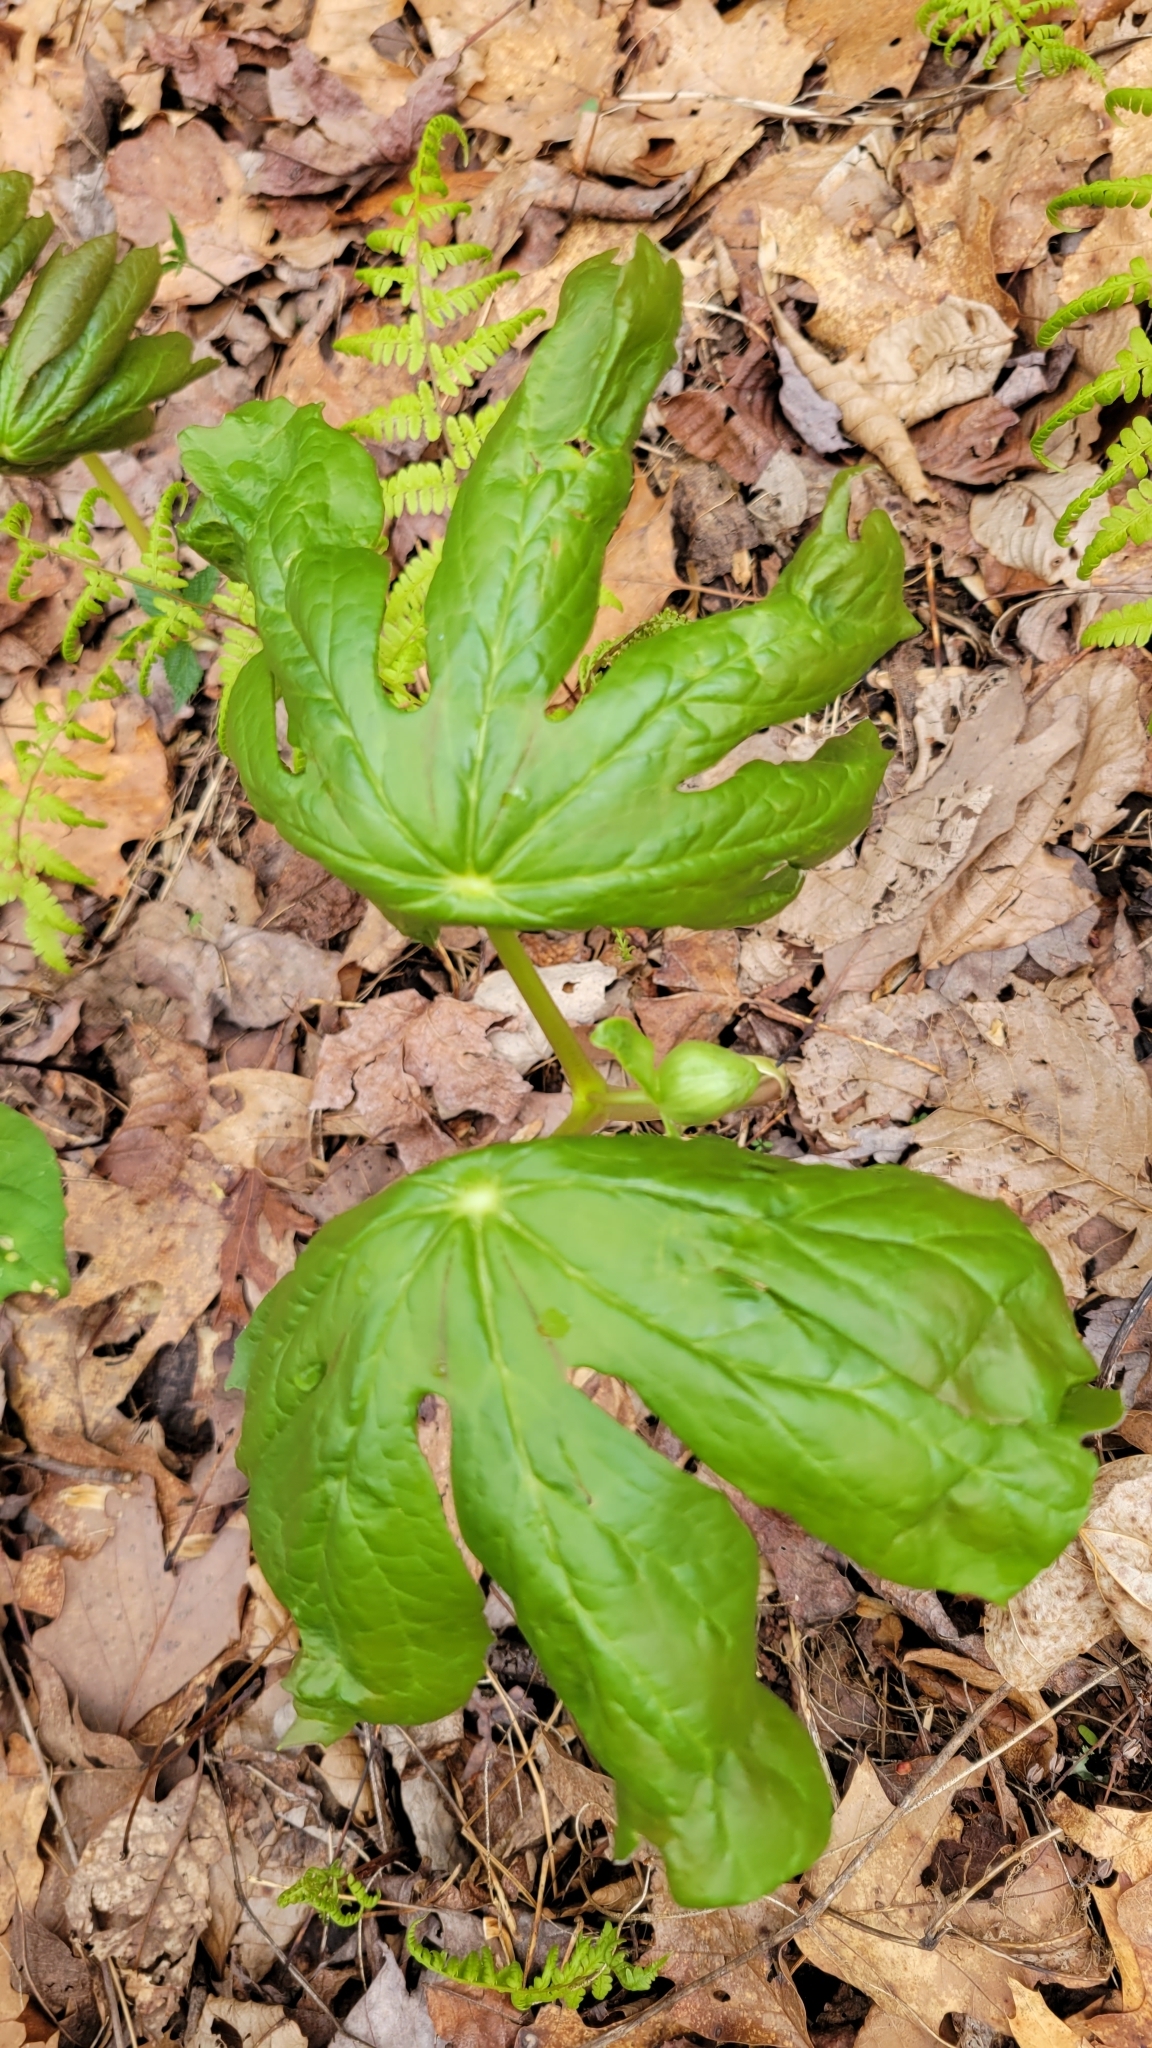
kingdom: Plantae
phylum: Tracheophyta
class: Magnoliopsida
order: Ranunculales
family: Berberidaceae
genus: Podophyllum
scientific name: Podophyllum peltatum
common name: Wild mandrake
